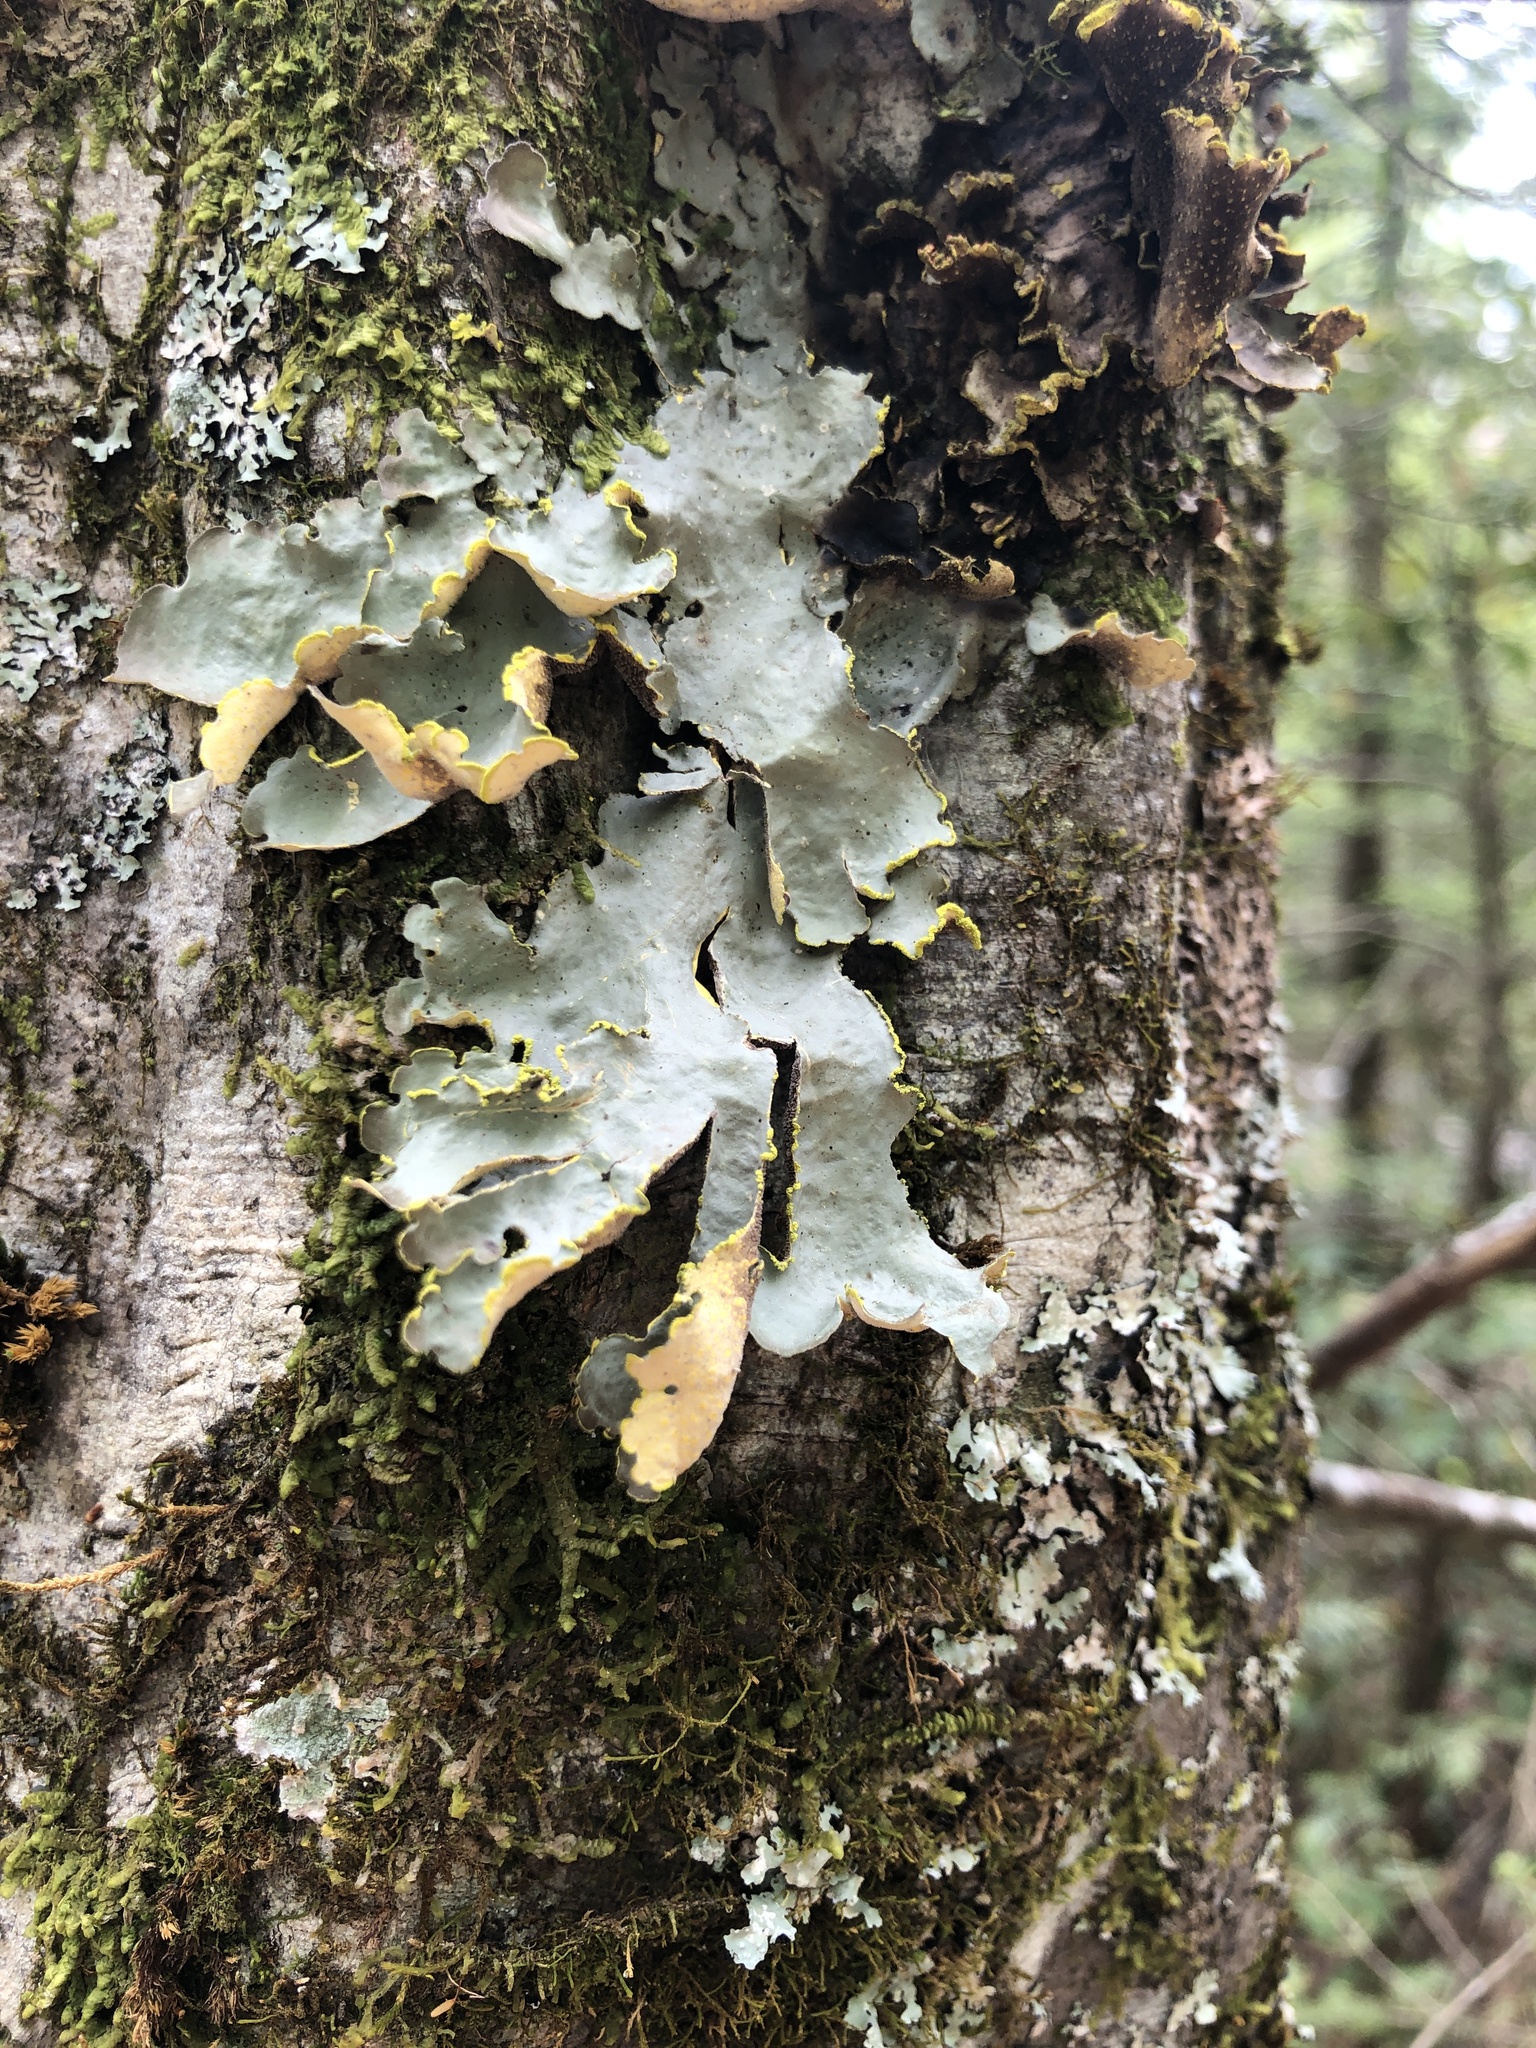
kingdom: Fungi
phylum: Ascomycota
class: Lecanoromycetes
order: Peltigerales
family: Lobariaceae
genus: Pseudocyphellaria
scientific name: Pseudocyphellaria aurata
